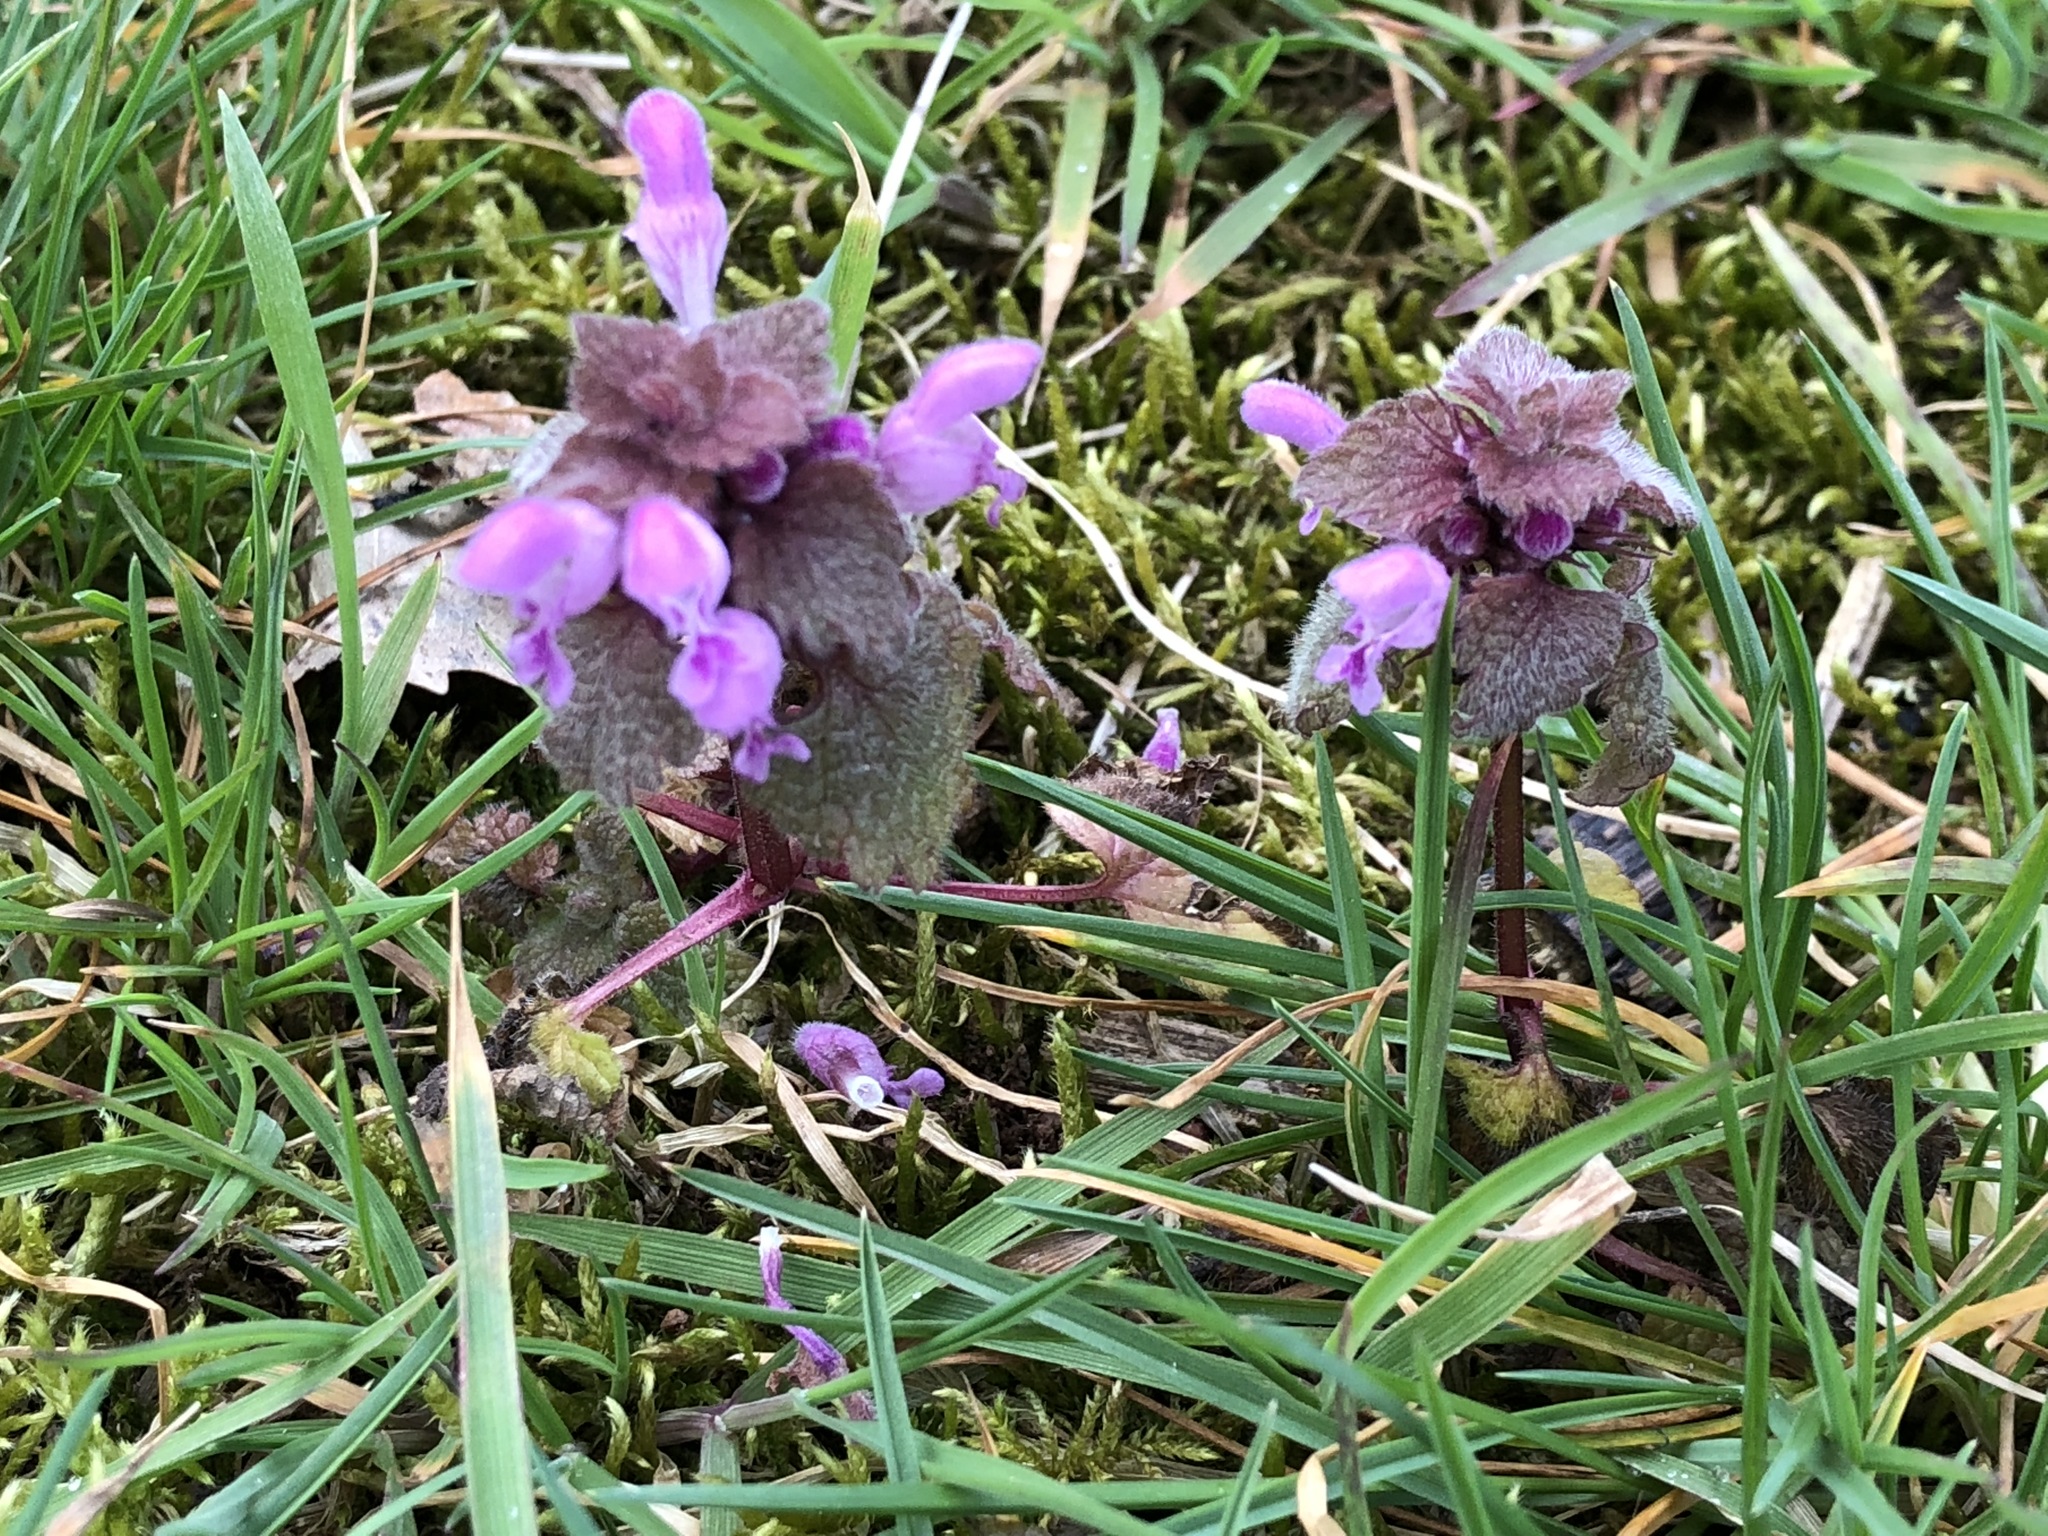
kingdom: Plantae
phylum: Tracheophyta
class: Magnoliopsida
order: Lamiales
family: Lamiaceae
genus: Lamium
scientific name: Lamium purpureum
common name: Red dead-nettle
